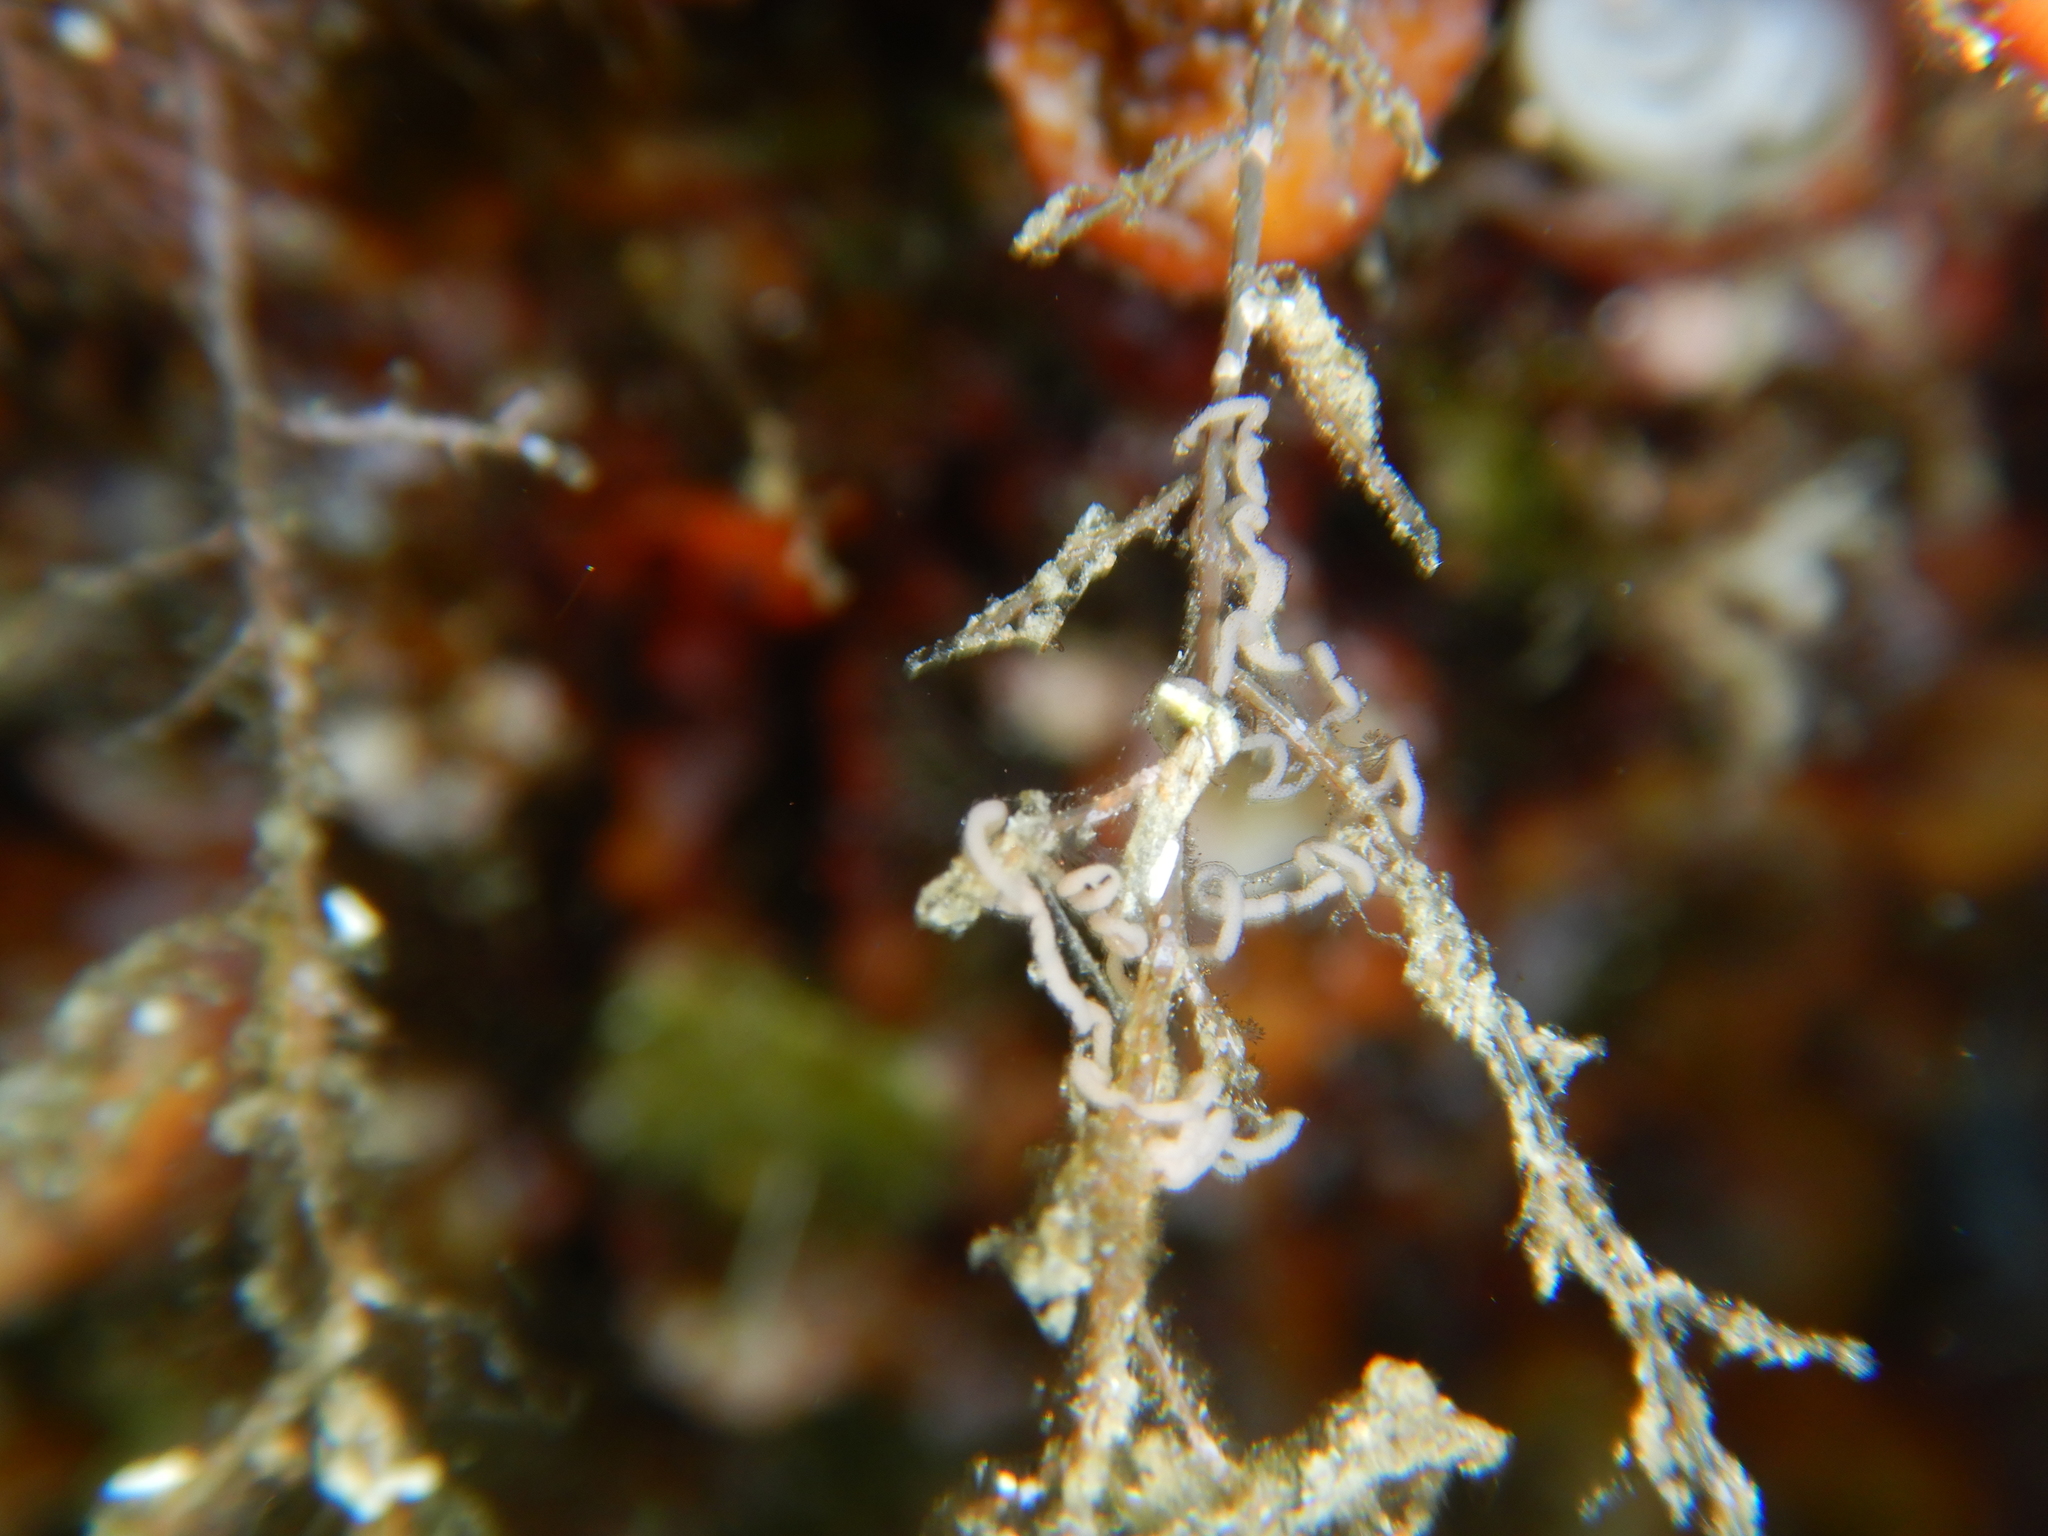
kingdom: Animalia
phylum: Mollusca
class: Gastropoda
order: Nudibranchia
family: Facelinidae
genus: Cratena
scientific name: Cratena peregrina
